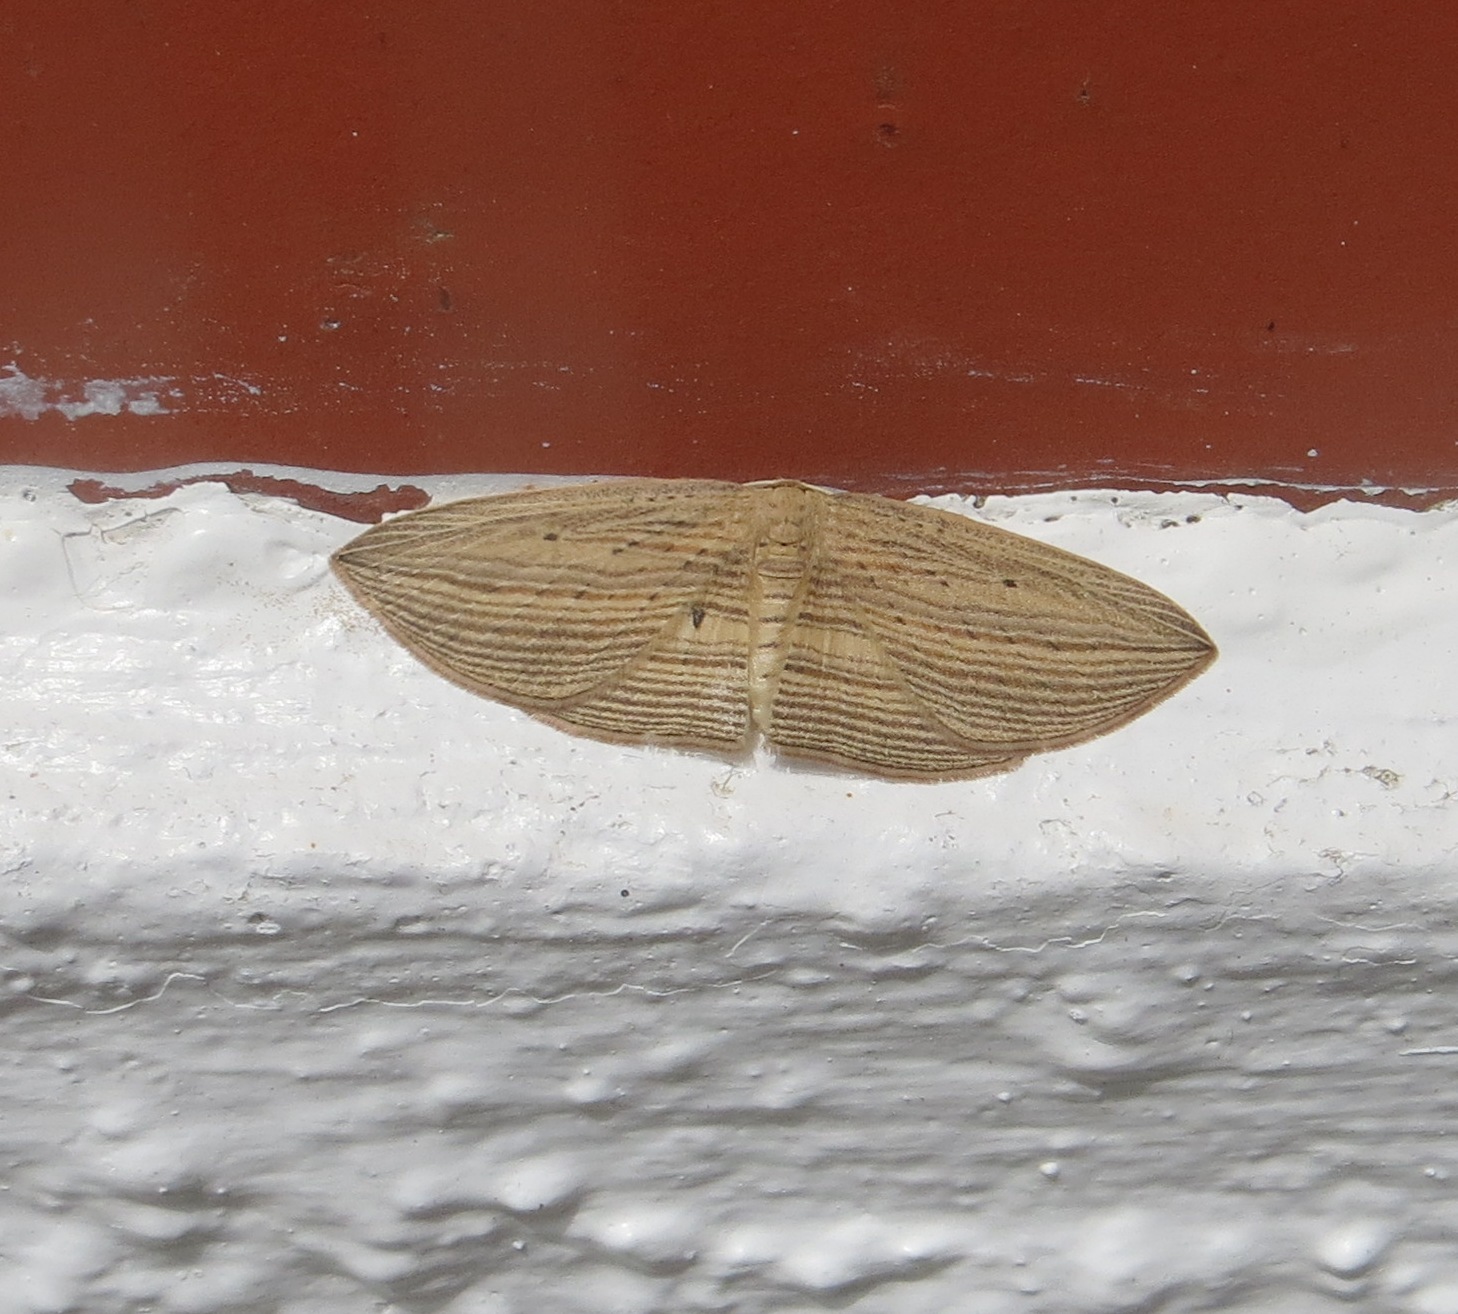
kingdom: Animalia
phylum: Arthropoda
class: Insecta
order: Lepidoptera
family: Geometridae
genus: Epiphryne
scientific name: Epiphryne verriculata
